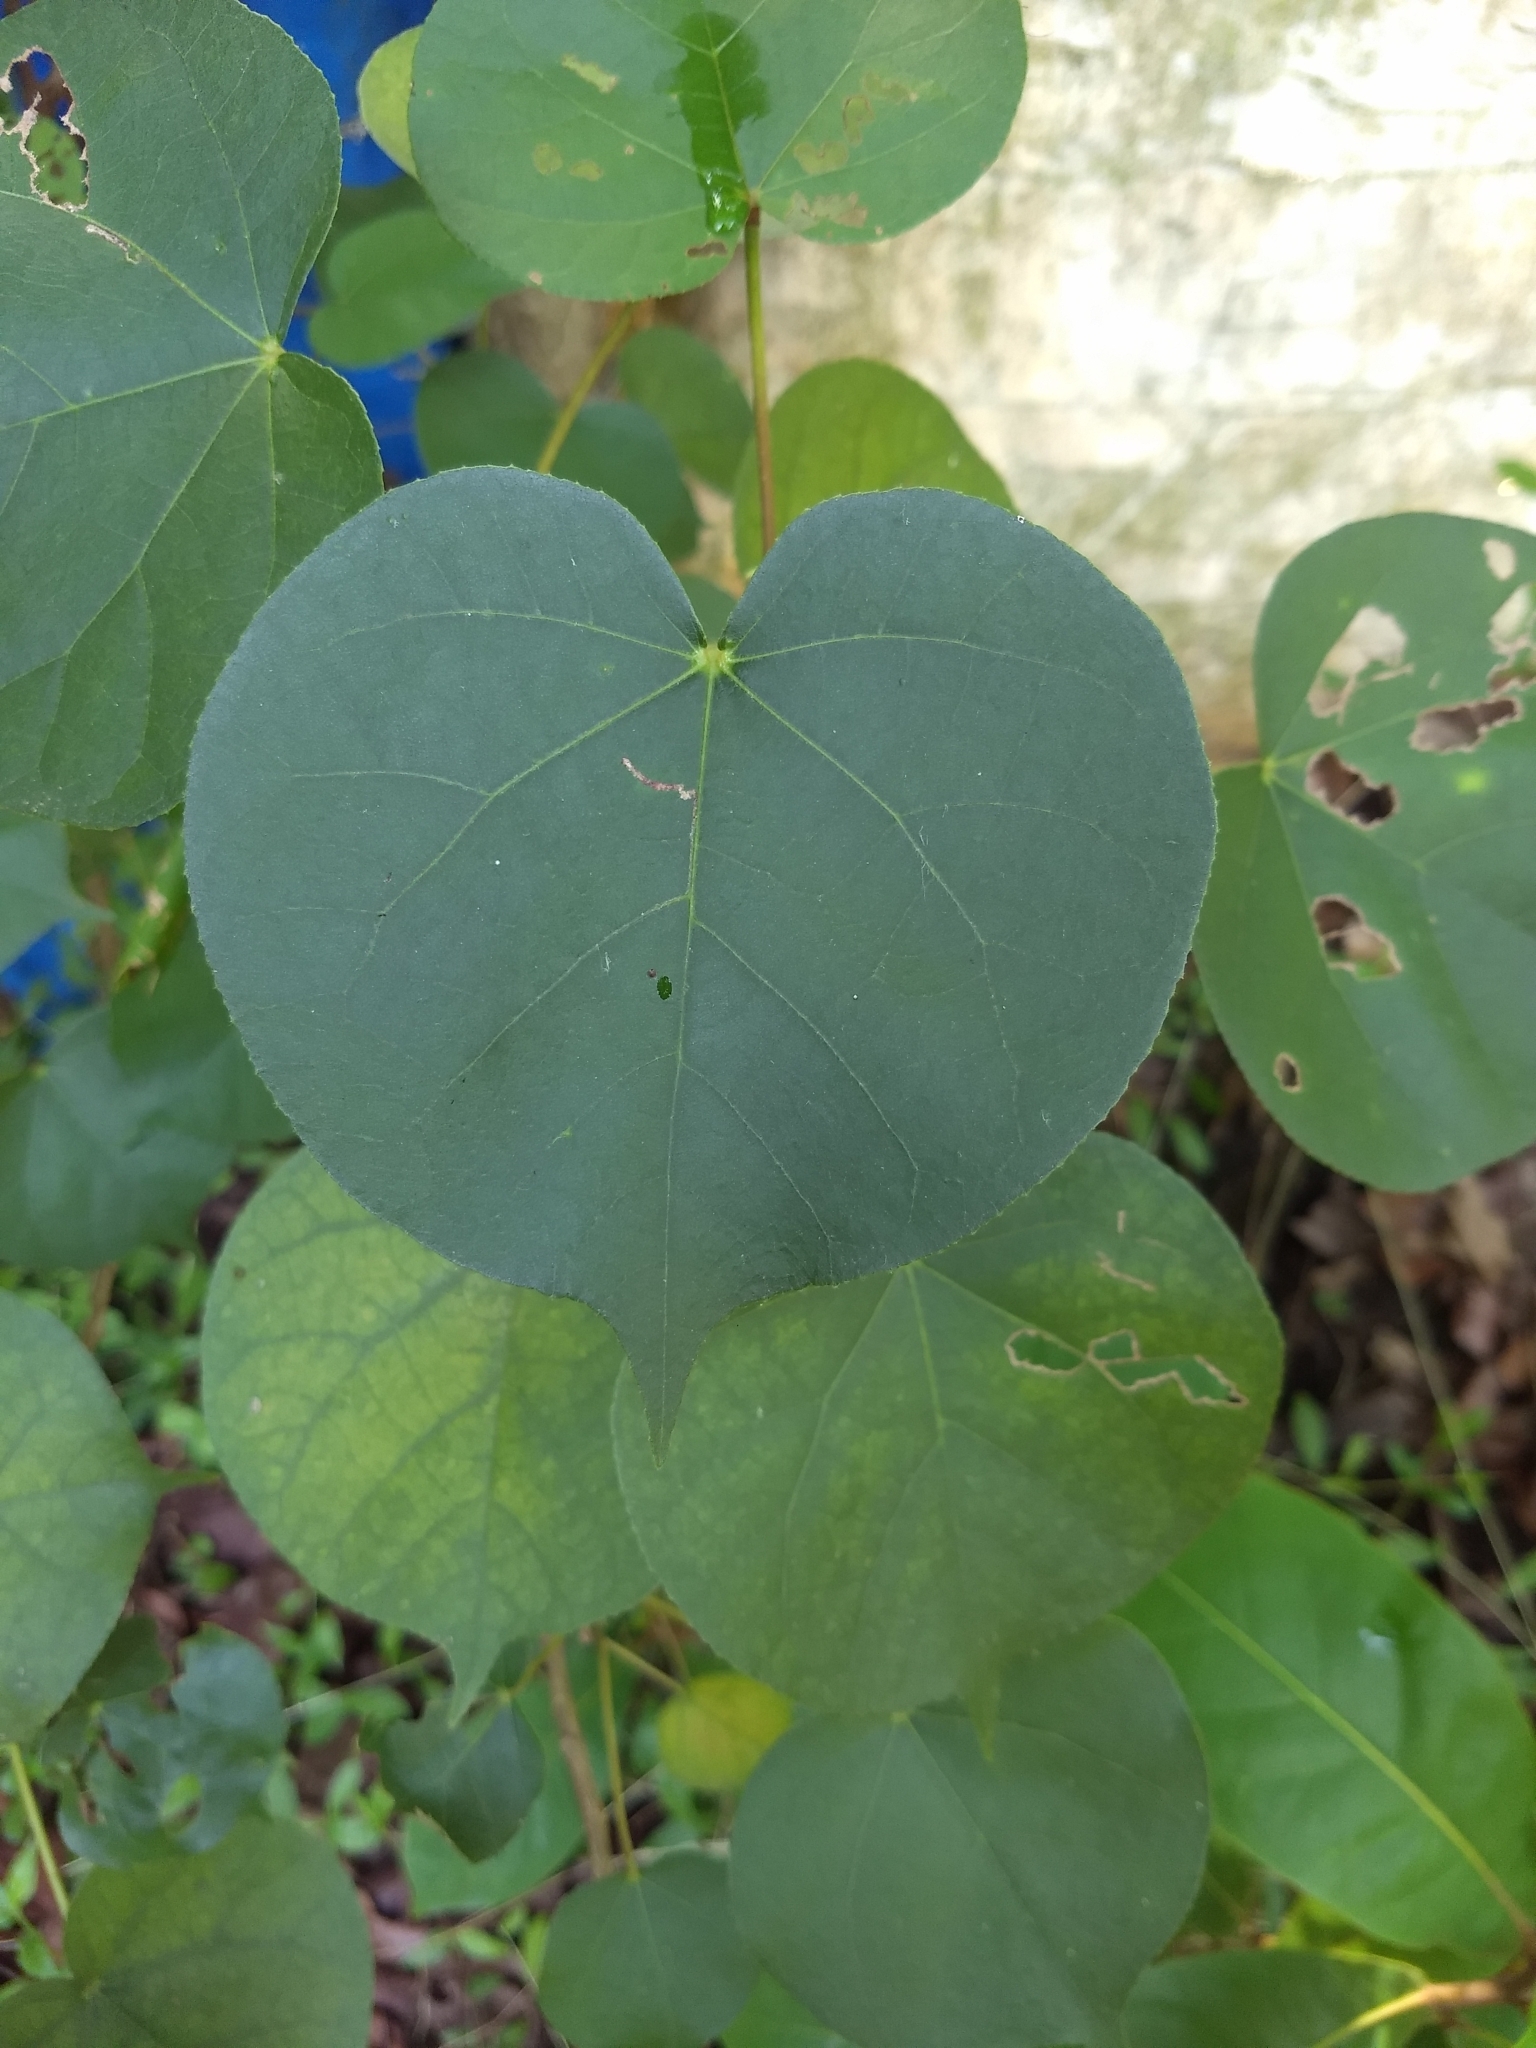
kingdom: Plantae
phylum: Tracheophyta
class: Magnoliopsida
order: Malvales
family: Malvaceae
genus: Talipariti
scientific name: Talipariti tiliaceum
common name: Sea hibiscus
